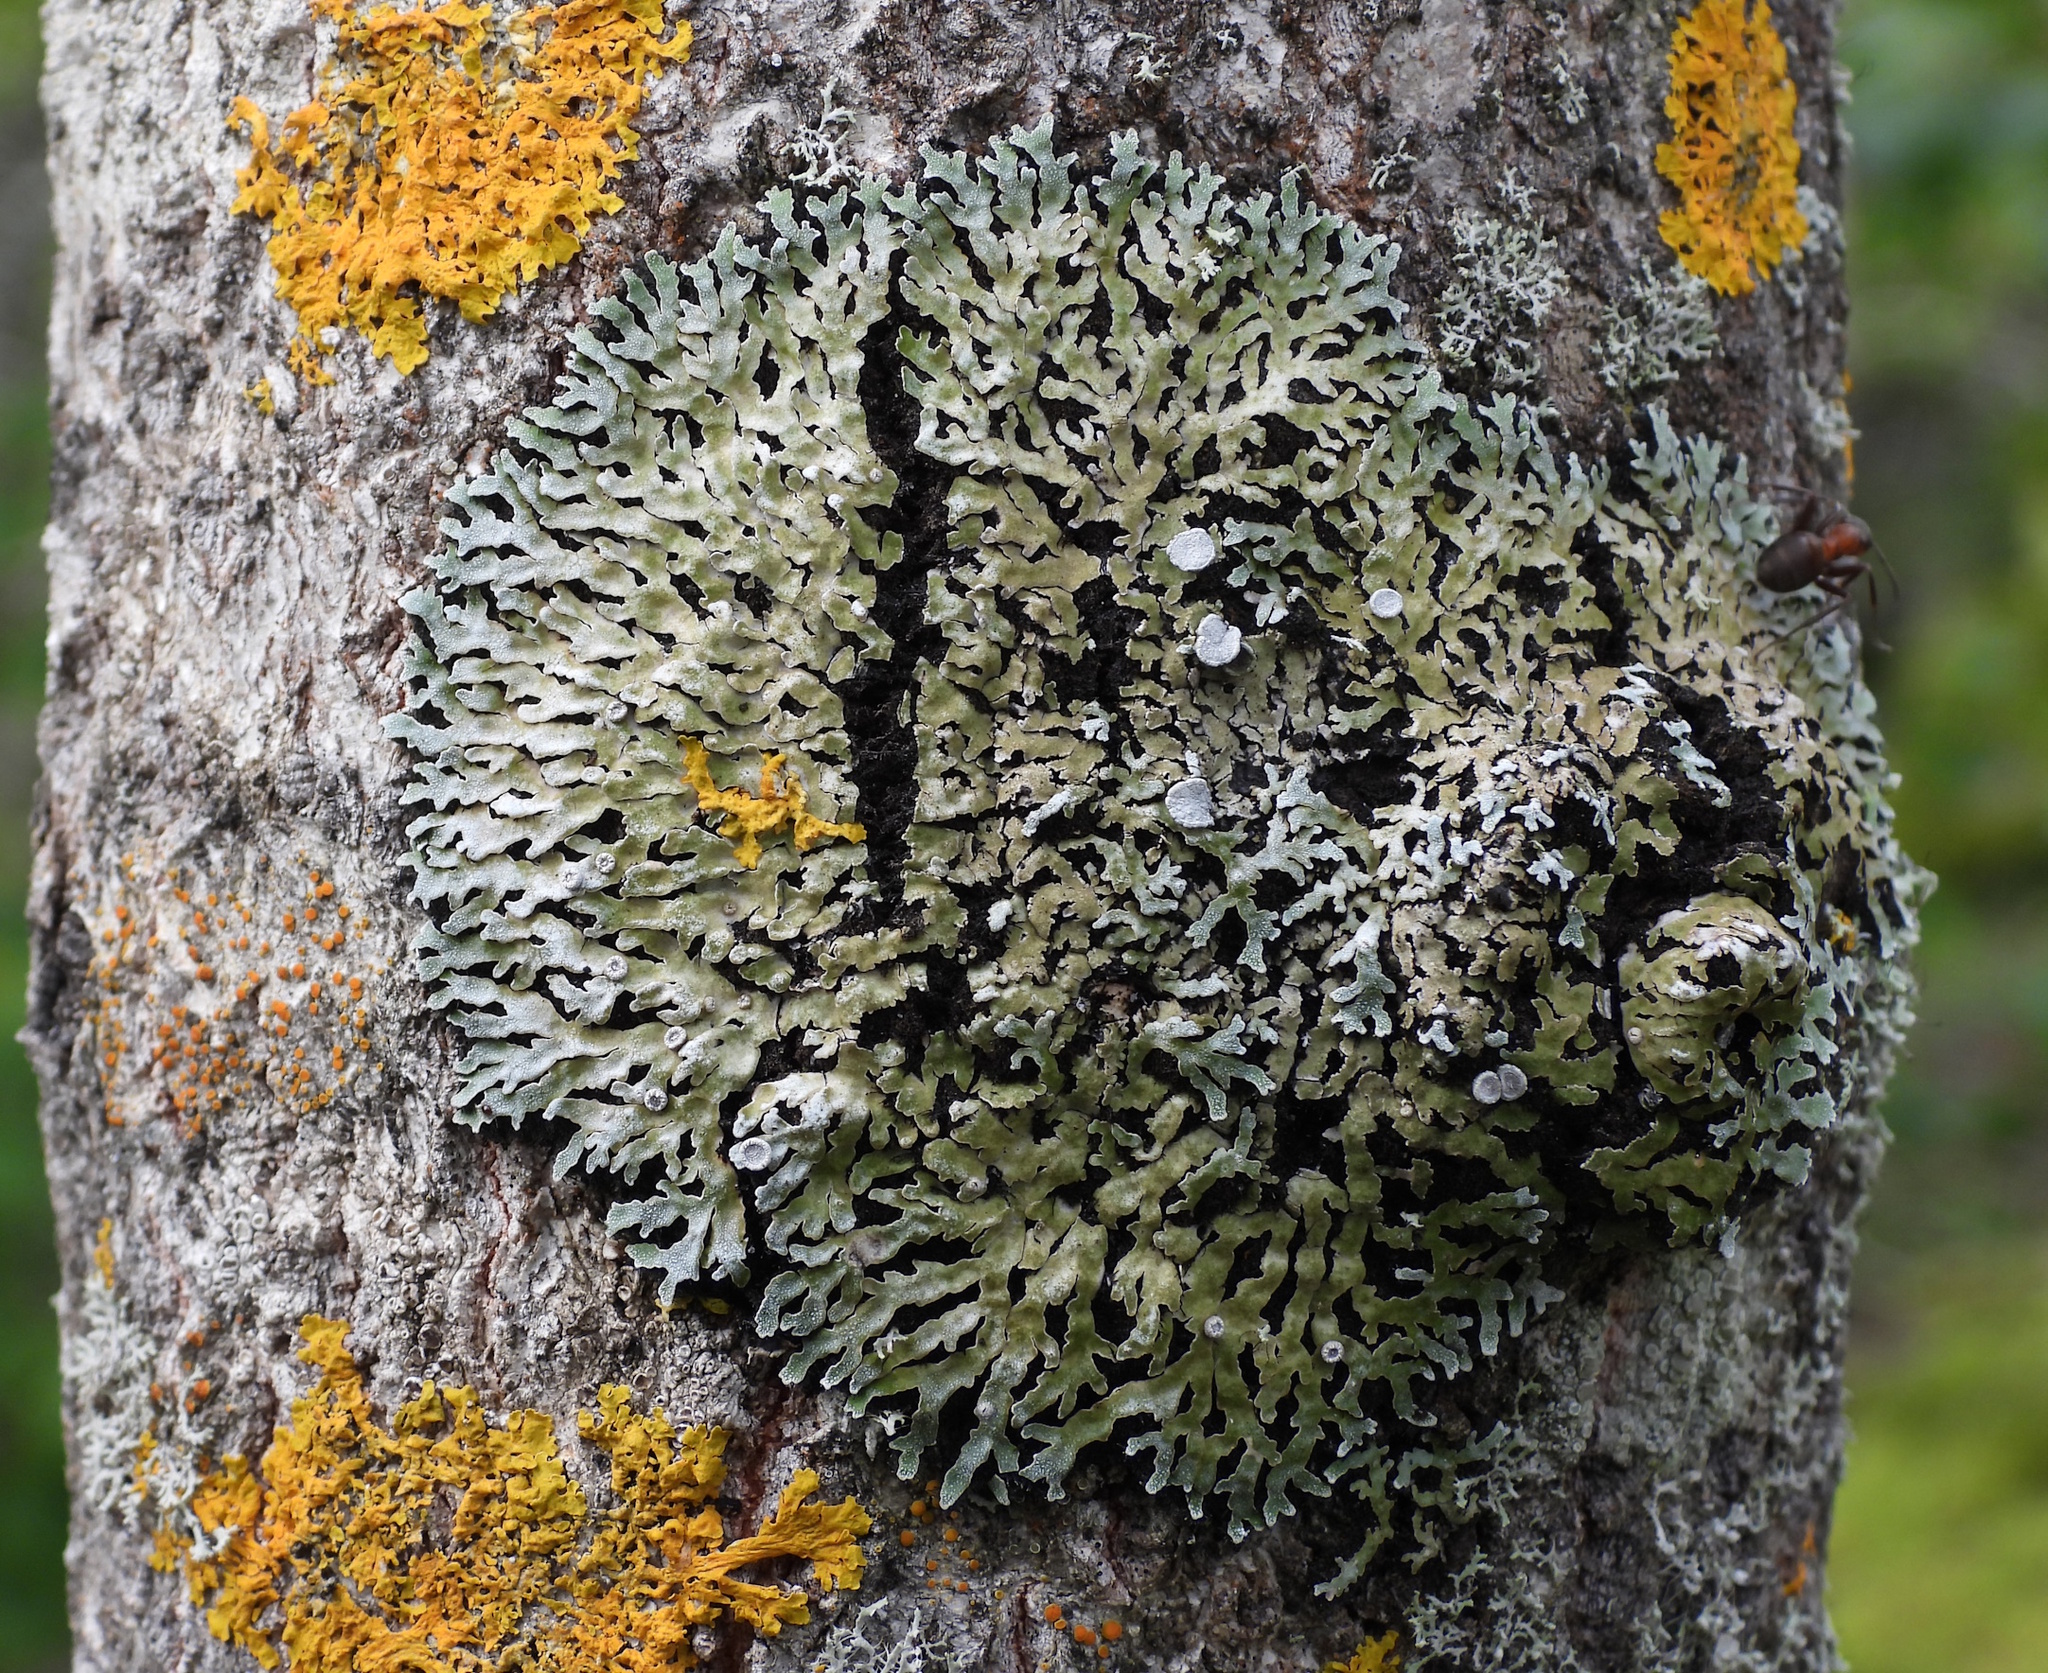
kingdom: Fungi
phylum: Ascomycota
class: Lecanoromycetes
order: Caliciales
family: Physciaceae
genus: Physconia
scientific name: Physconia distorta
